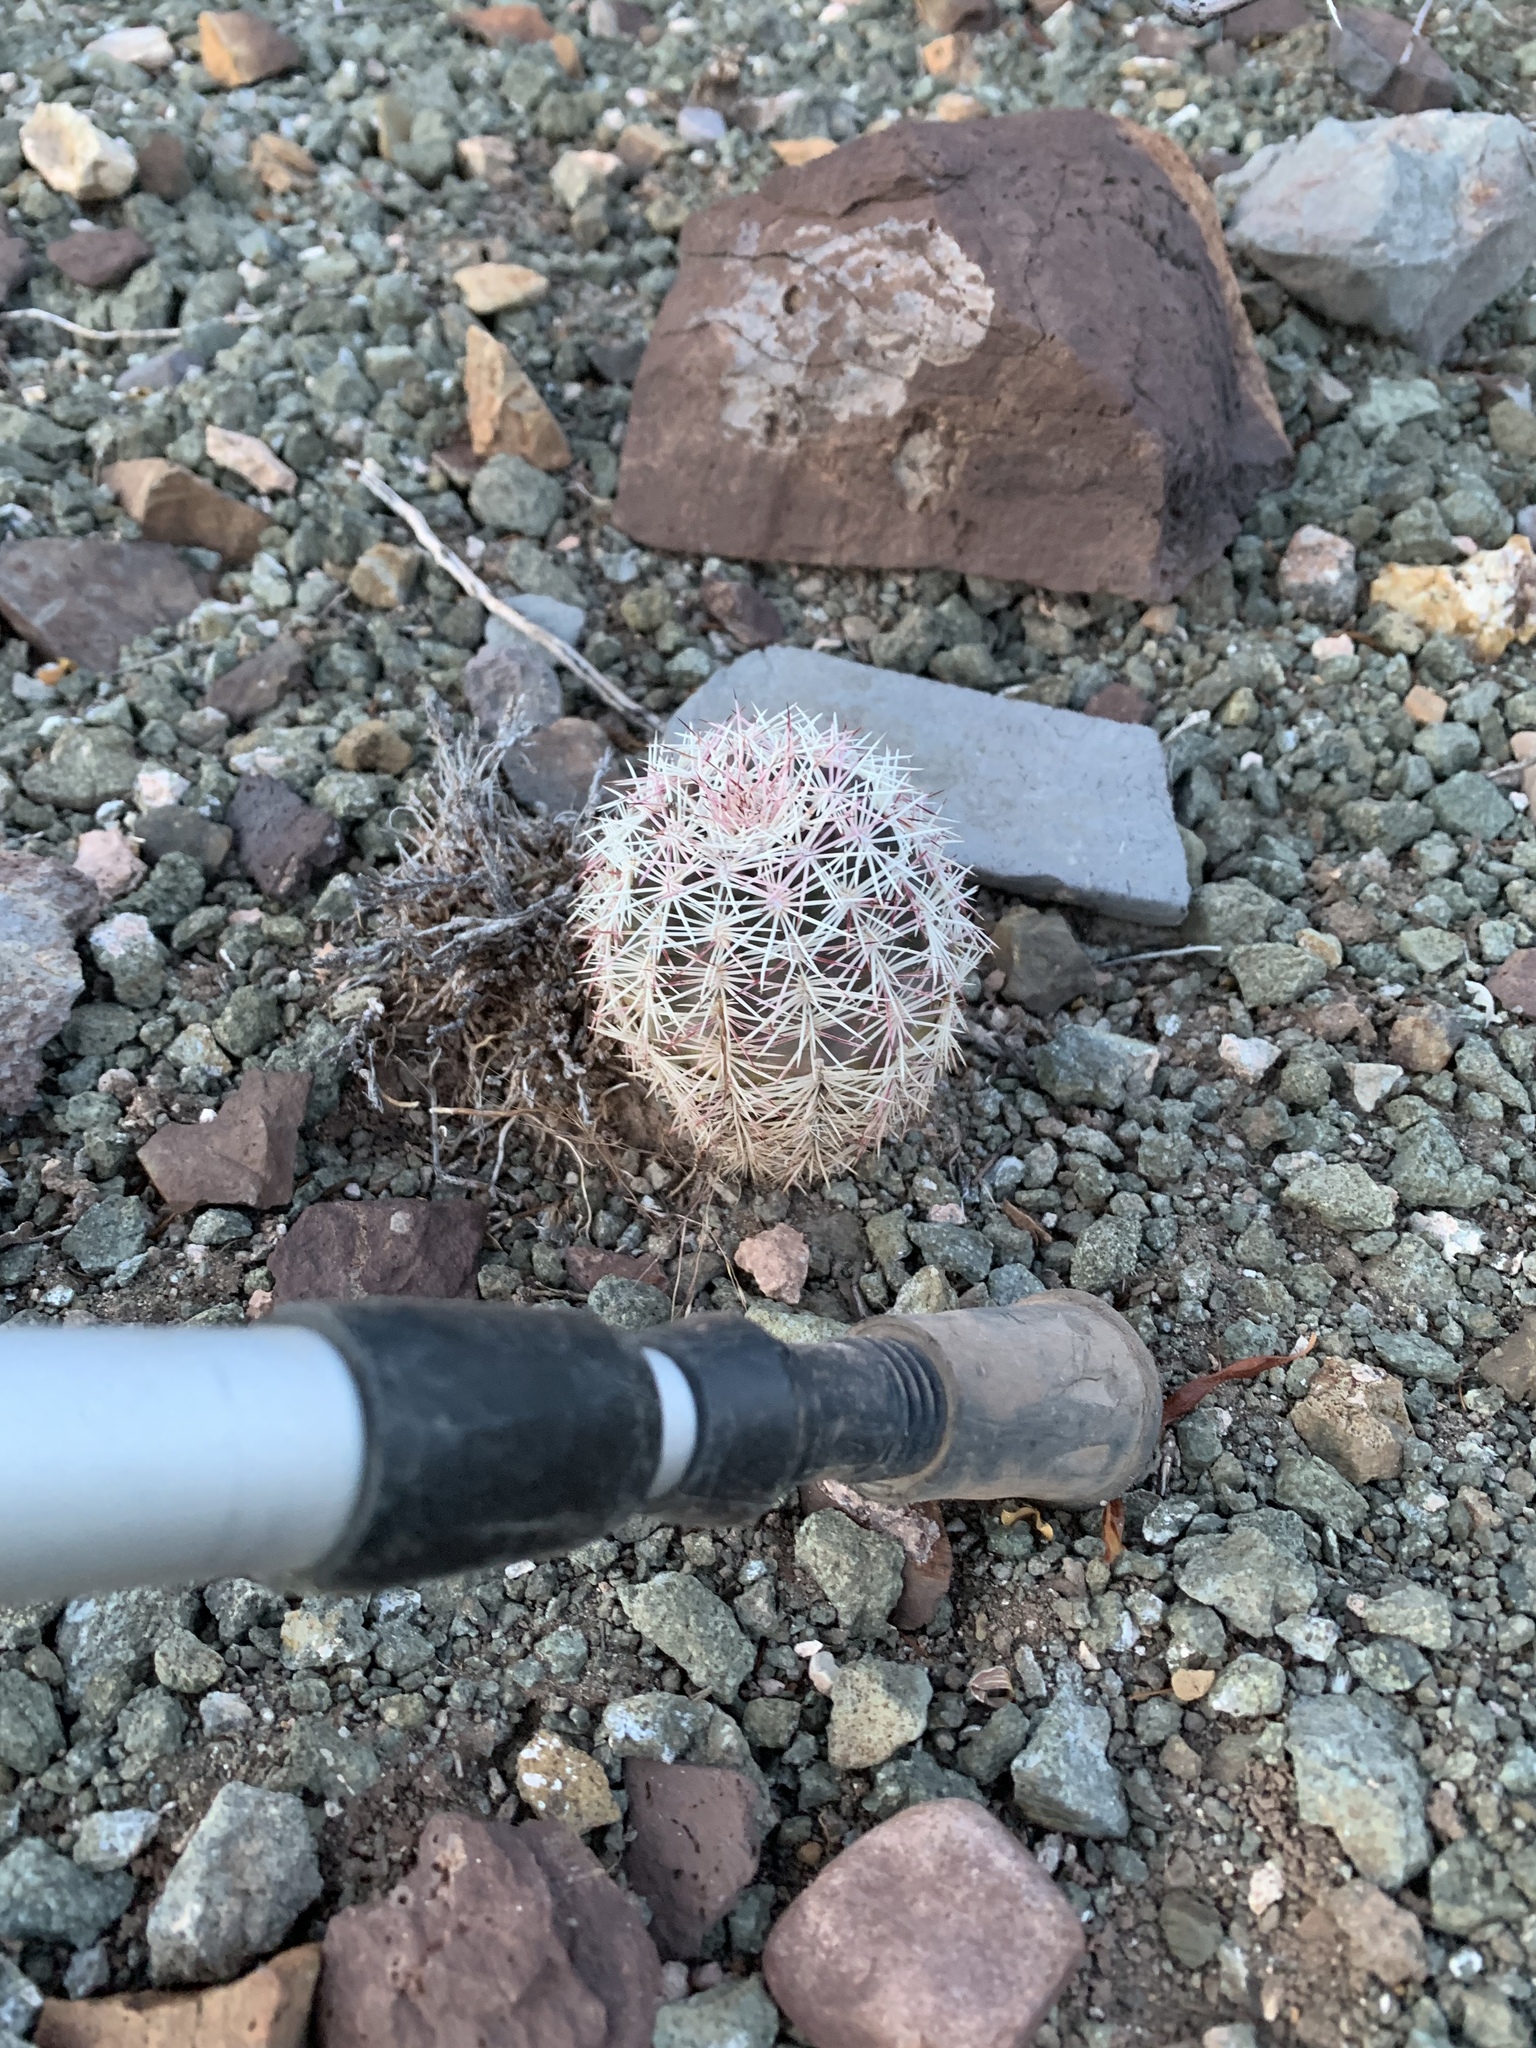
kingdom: Plantae
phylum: Tracheophyta
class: Magnoliopsida
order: Caryophyllales
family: Cactaceae
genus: Echinocereus
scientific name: Echinocereus viridiflorus
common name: Nylon hedgehog cactus
